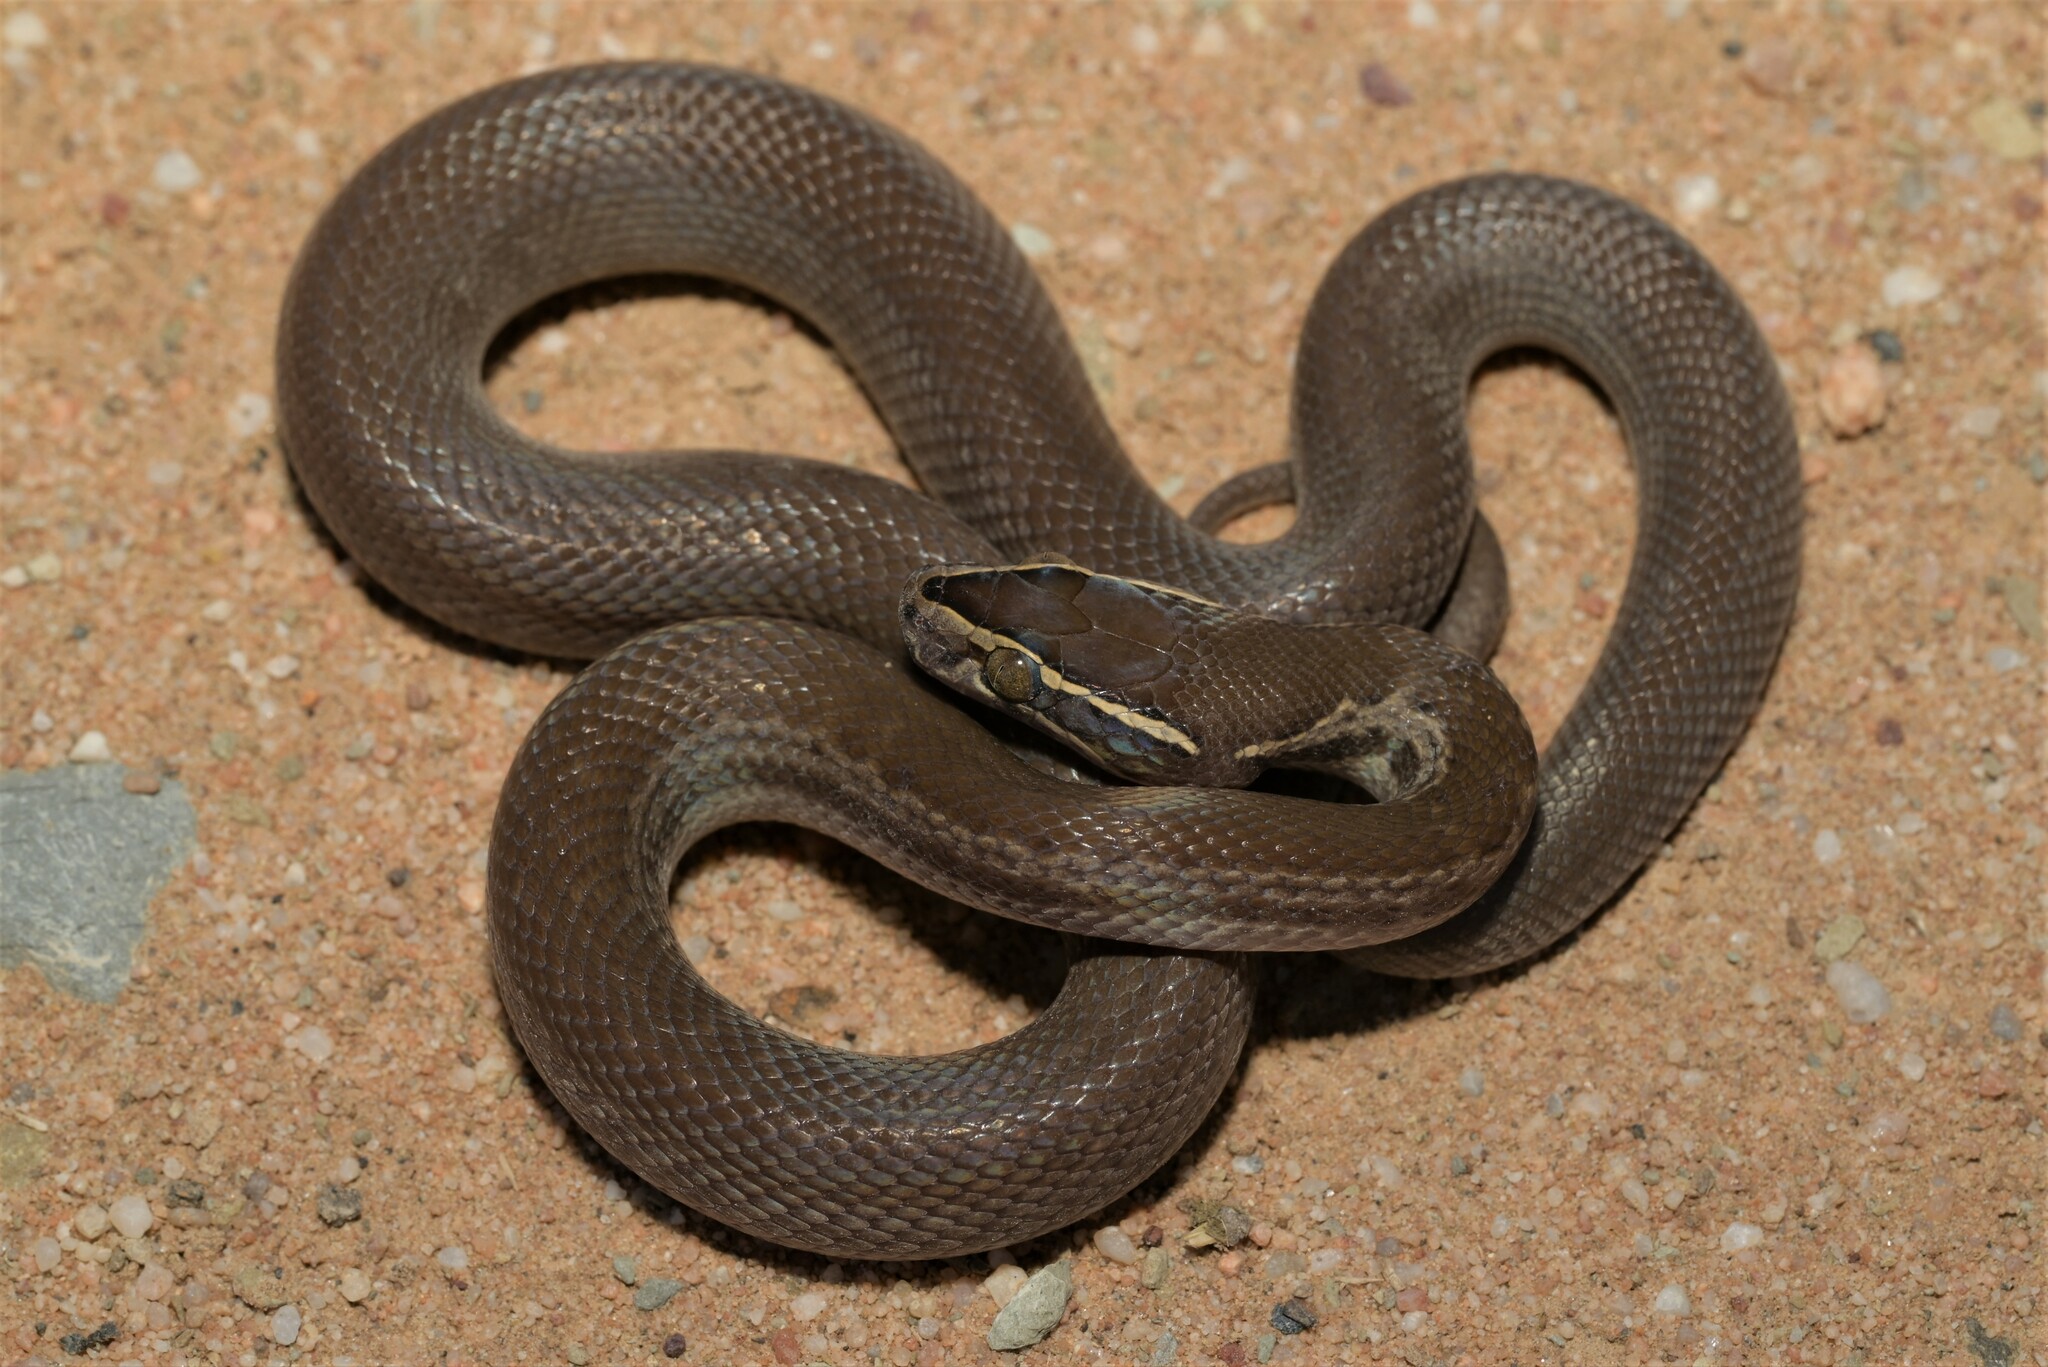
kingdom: Animalia
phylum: Chordata
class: Squamata
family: Lamprophiidae
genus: Boaedon
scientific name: Boaedon capensis
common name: Brown house snake
